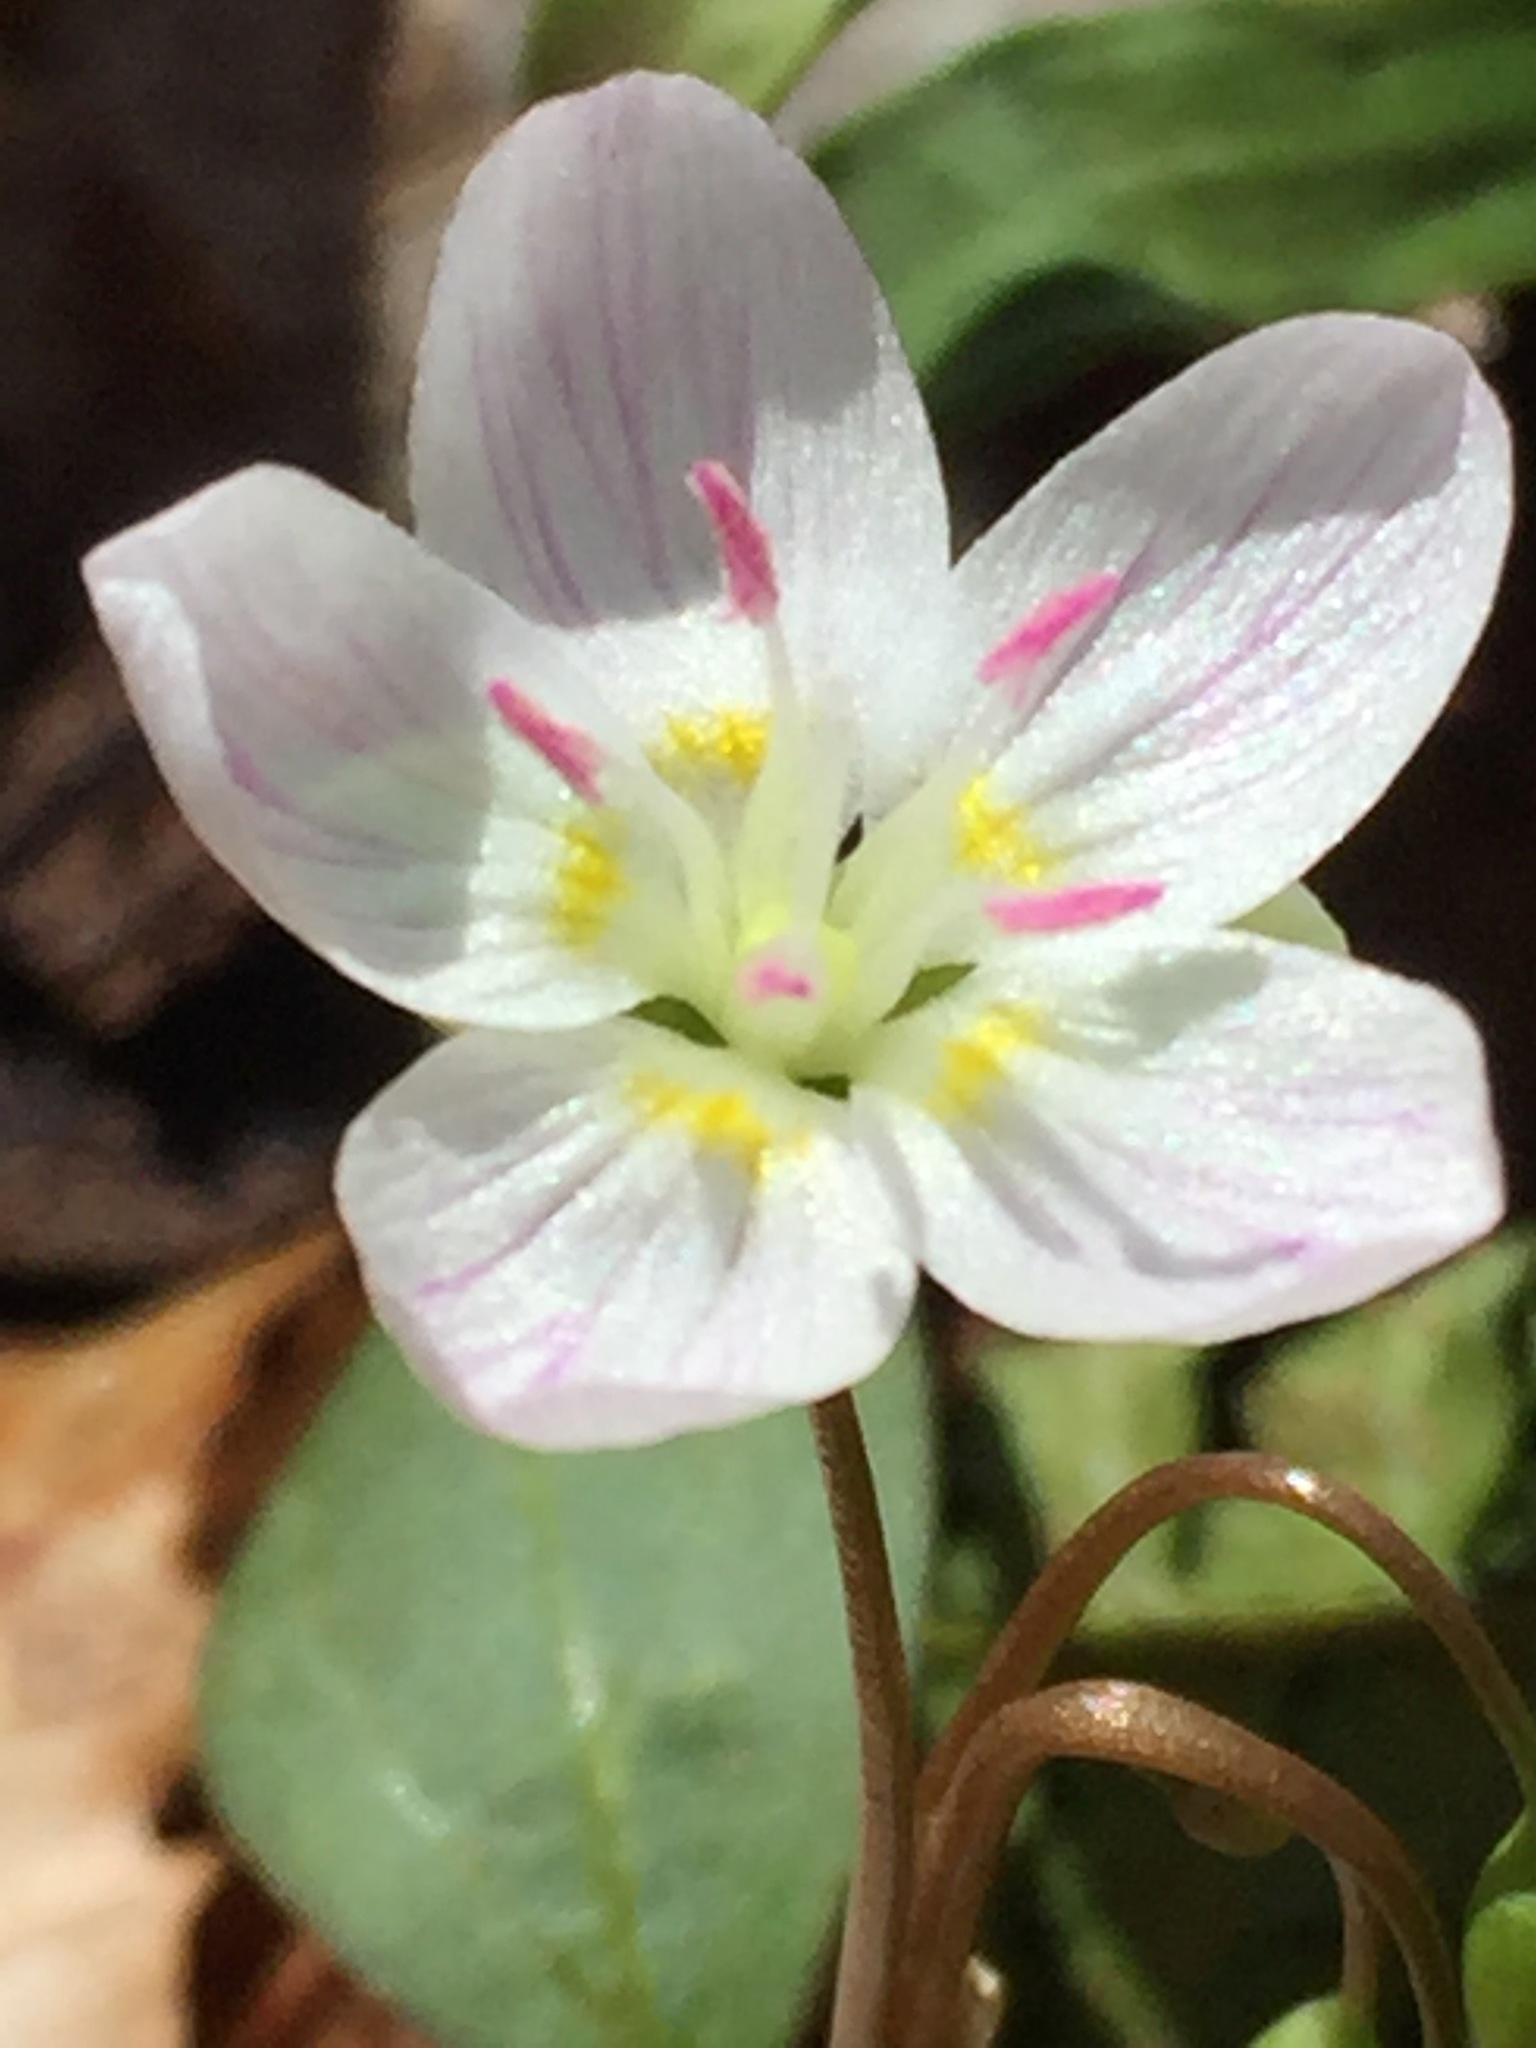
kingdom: Plantae
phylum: Tracheophyta
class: Magnoliopsida
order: Caryophyllales
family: Montiaceae
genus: Claytonia
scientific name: Claytonia caroliniana
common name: Carolina spring beauty
